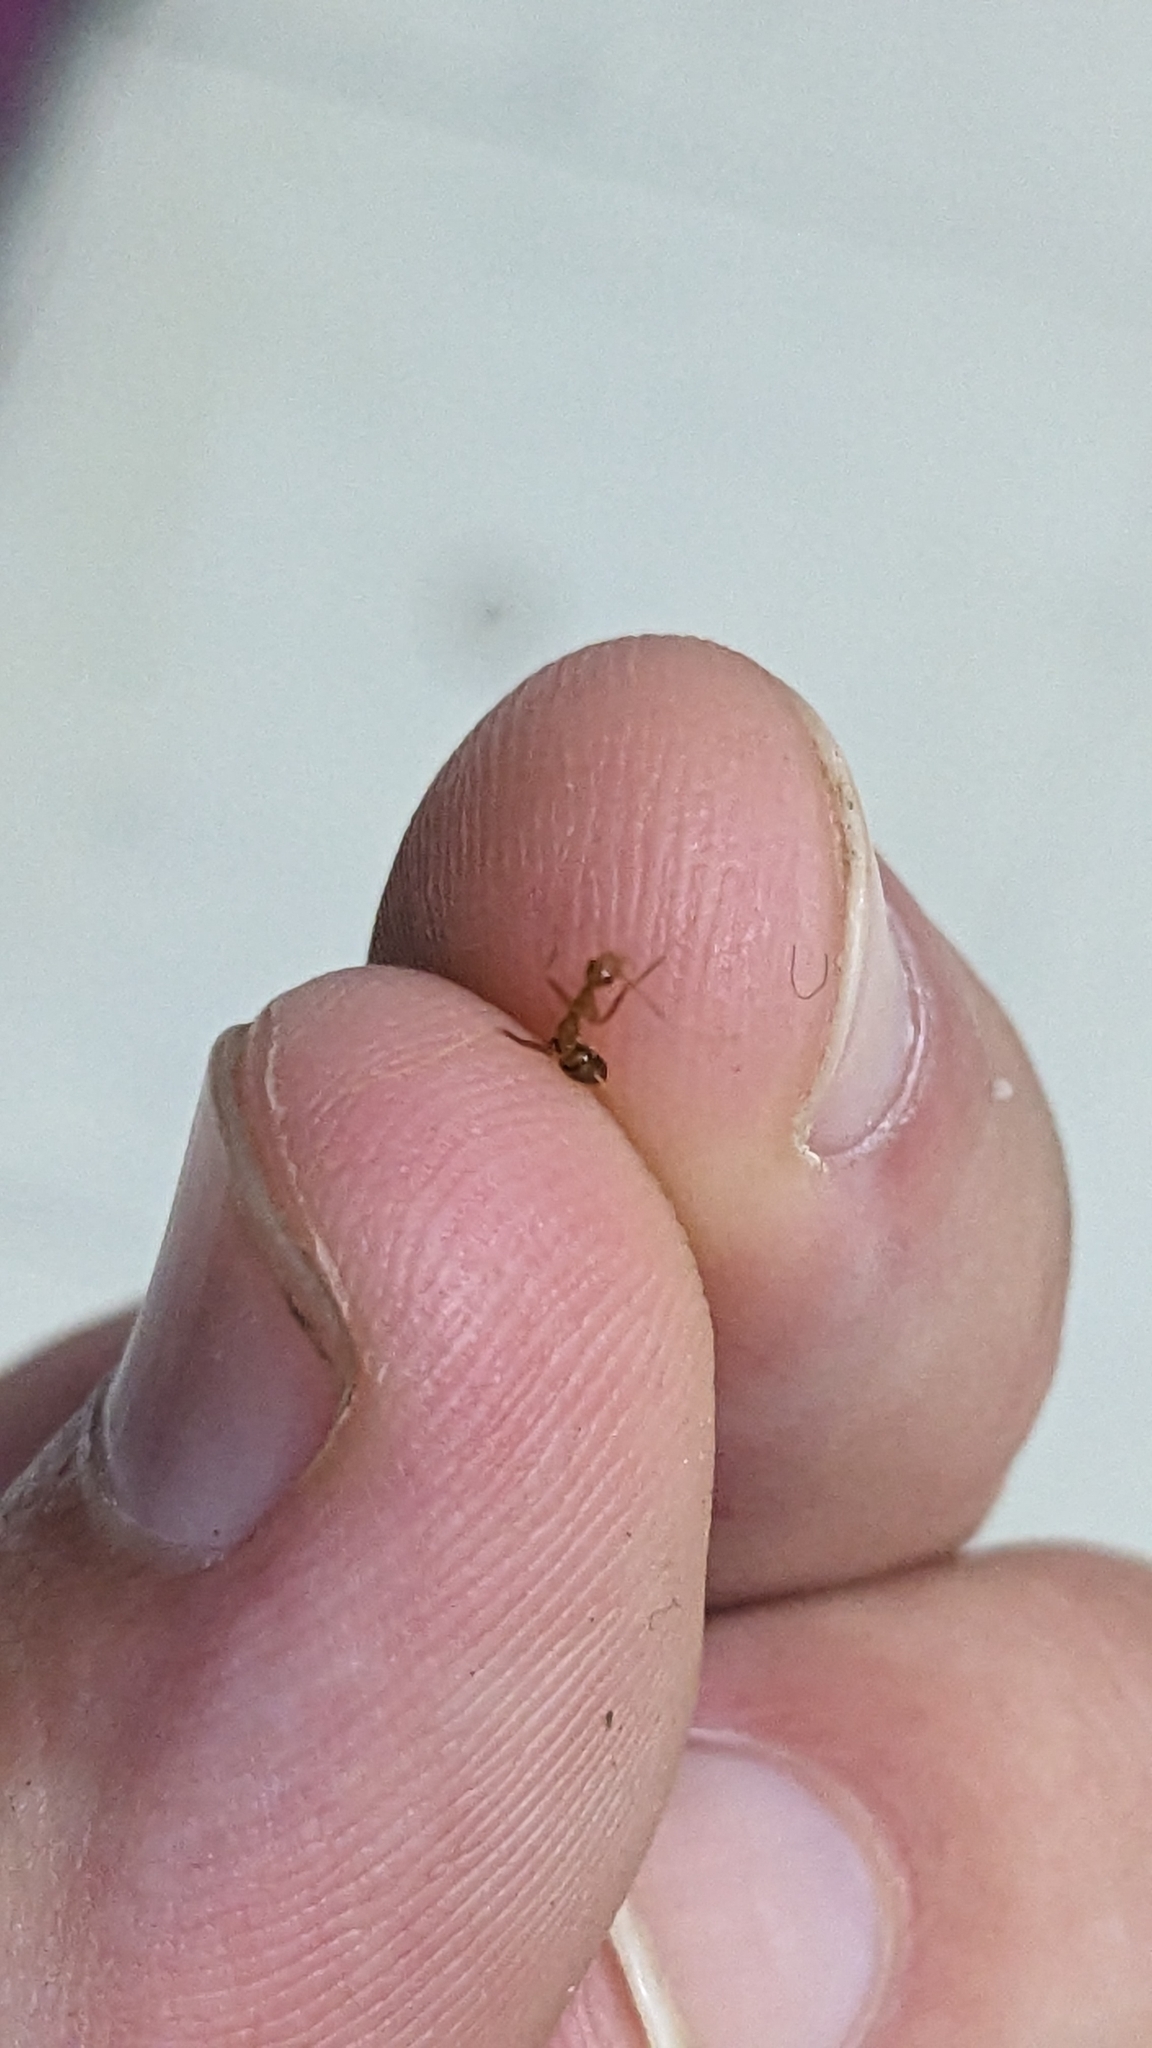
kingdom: Animalia
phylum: Arthropoda
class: Insecta
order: Hymenoptera
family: Formicidae
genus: Anoplolepis
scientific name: Anoplolepis gracilipes
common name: Ant
